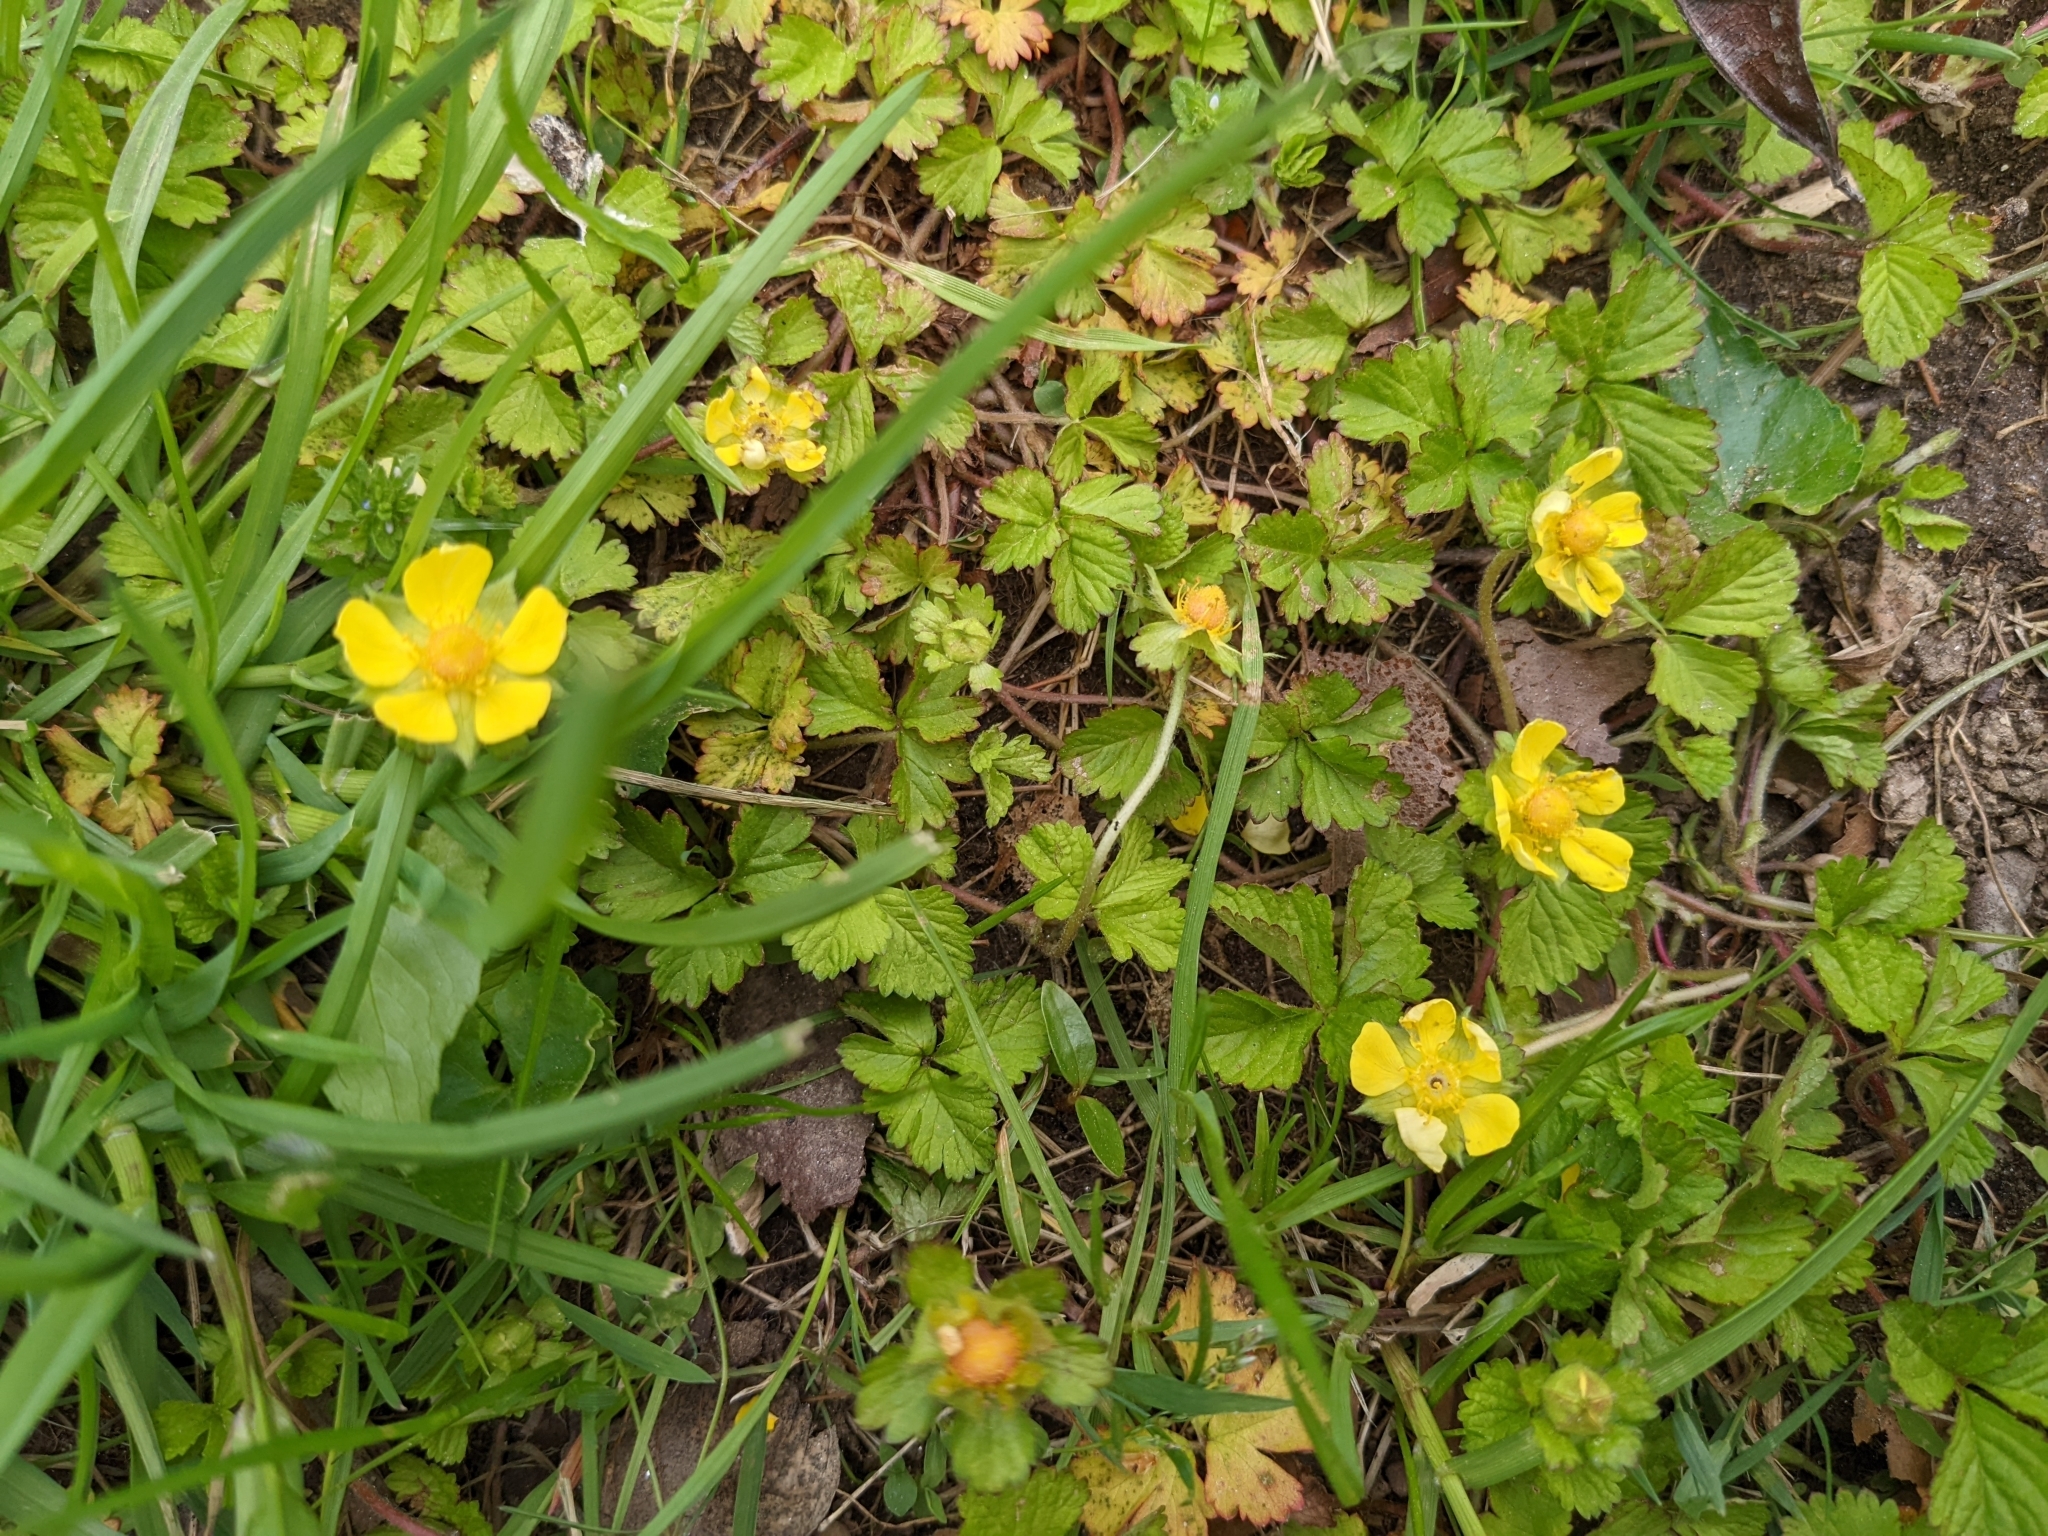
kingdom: Plantae
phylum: Tracheophyta
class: Magnoliopsida
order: Rosales
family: Rosaceae
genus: Potentilla
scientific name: Potentilla indica
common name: Yellow-flowered strawberry
